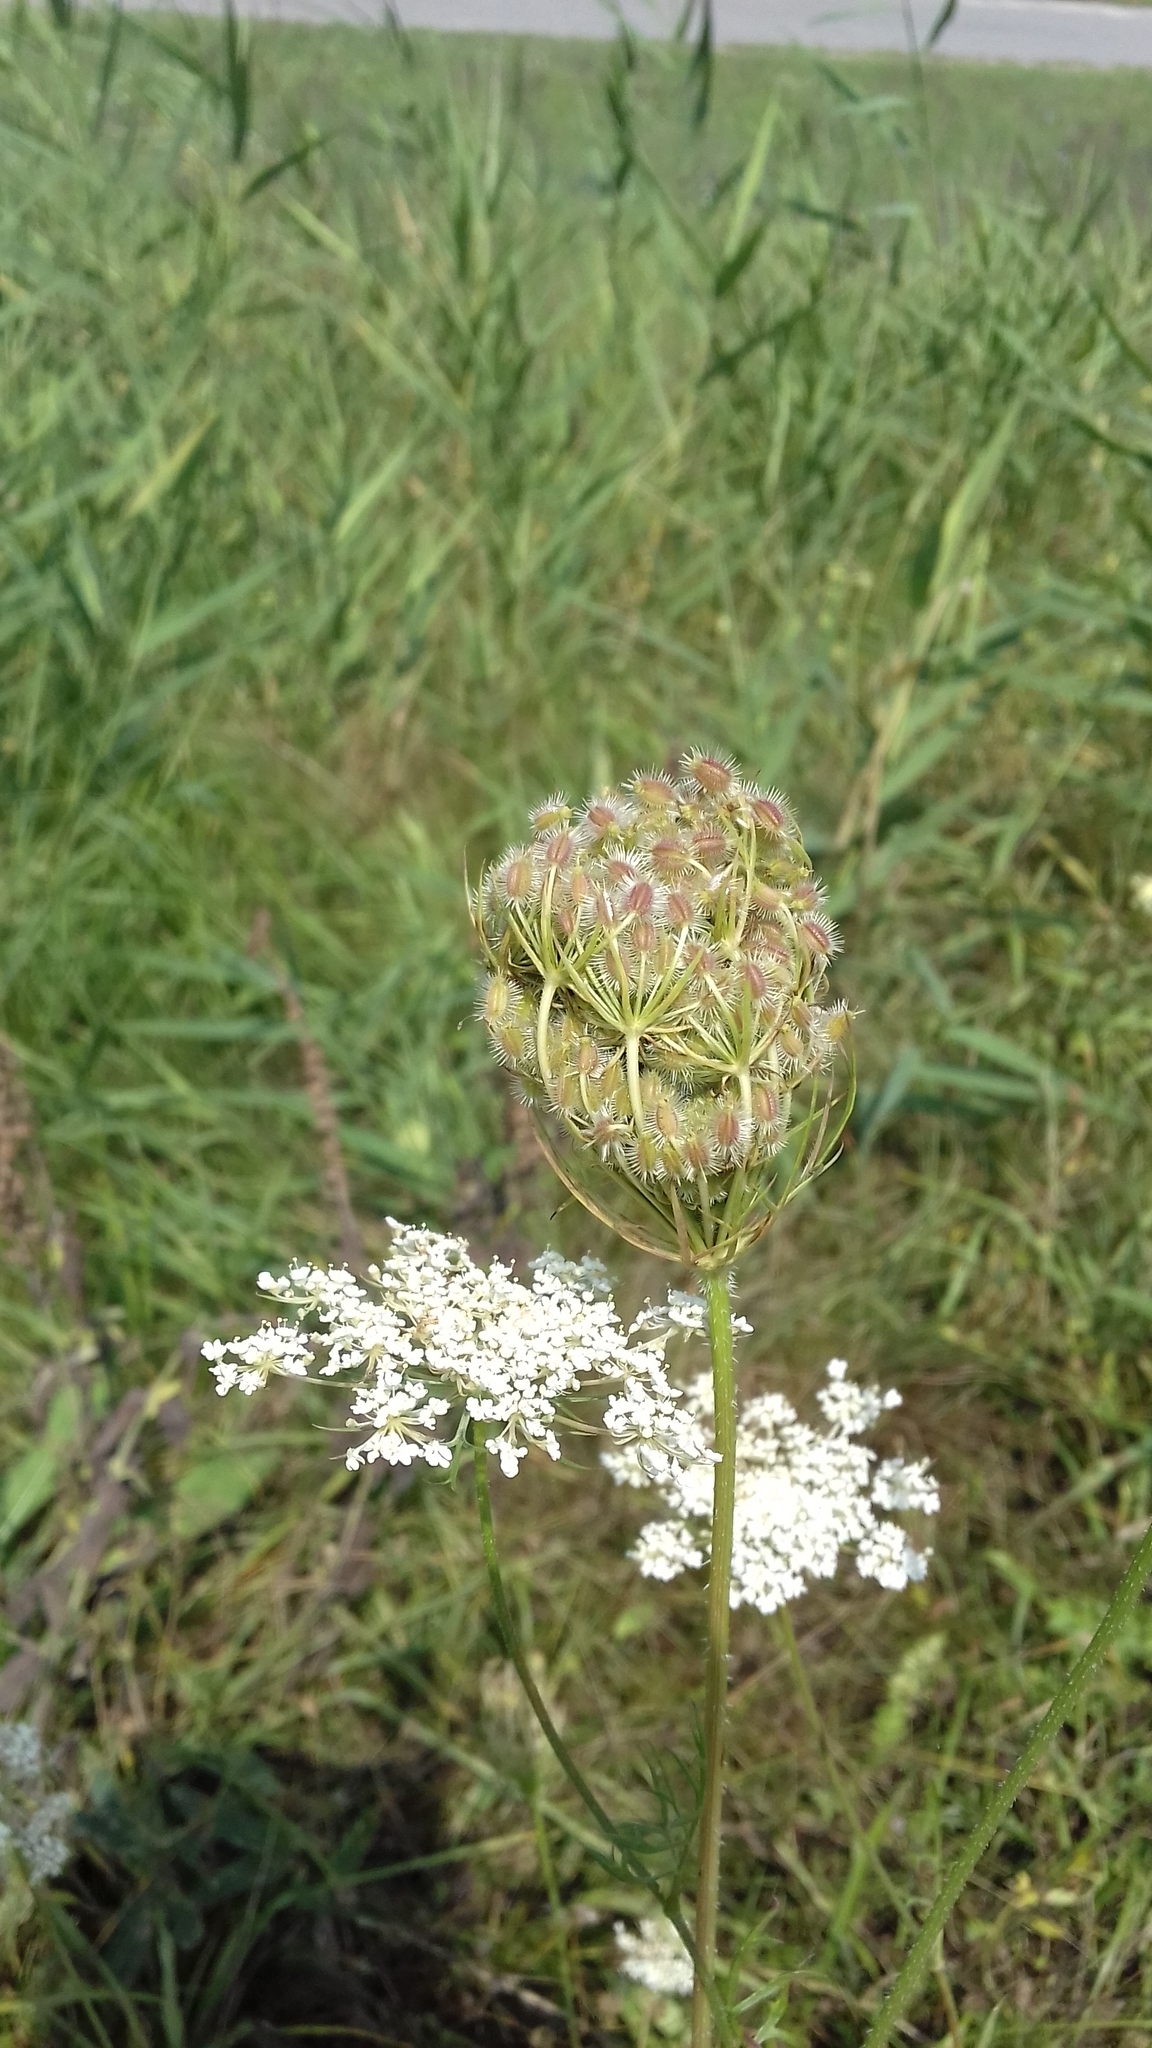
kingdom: Plantae
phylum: Tracheophyta
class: Magnoliopsida
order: Apiales
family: Apiaceae
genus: Daucus
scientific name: Daucus carota
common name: Wild carrot
